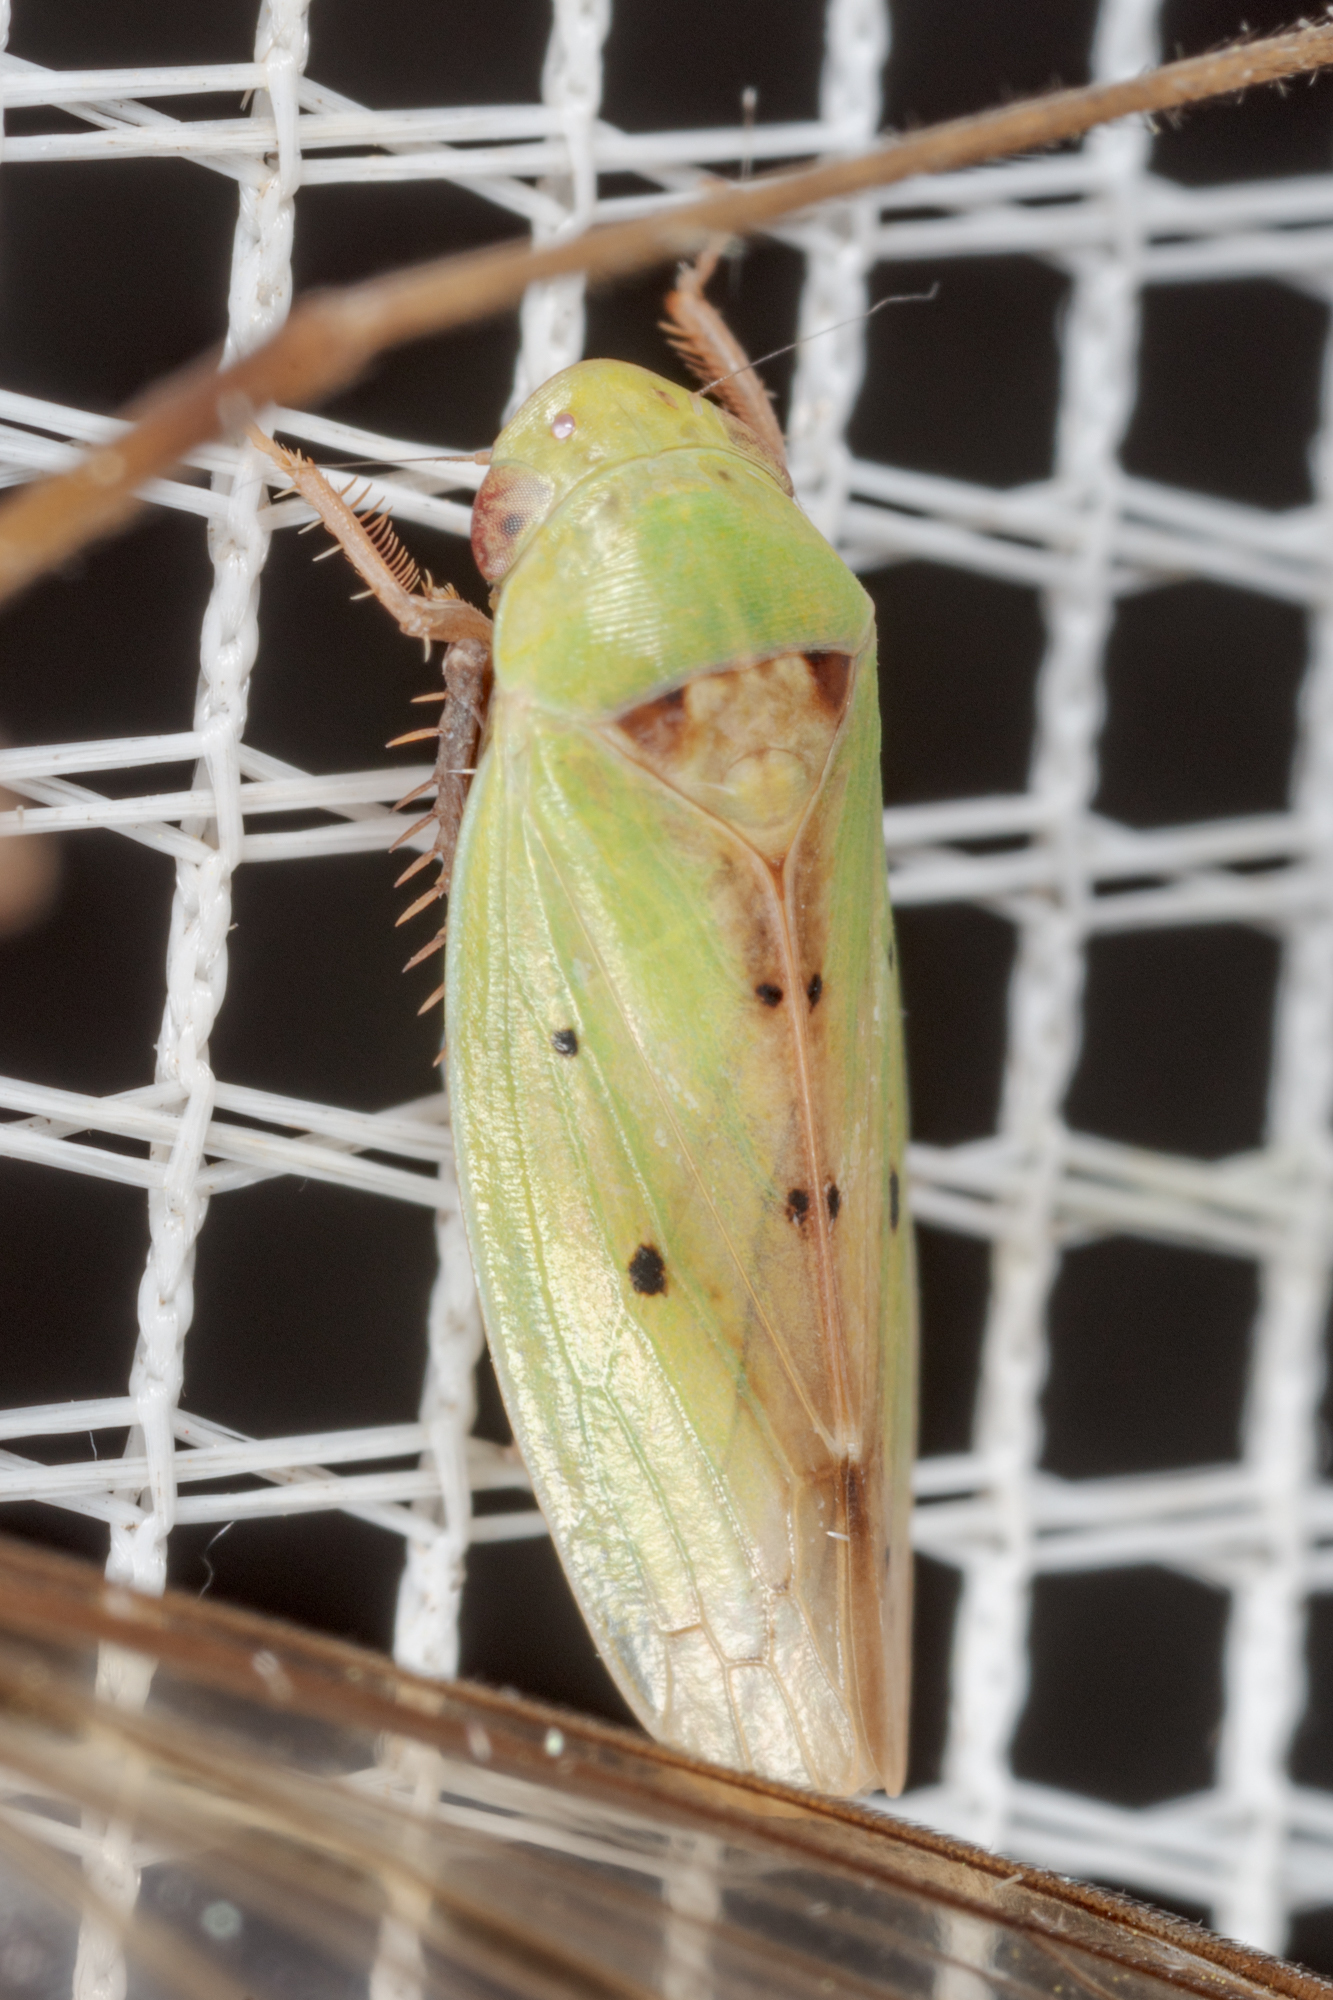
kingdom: Animalia
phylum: Arthropoda
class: Insecta
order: Hemiptera
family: Cicadellidae
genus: Ponana
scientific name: Ponana
